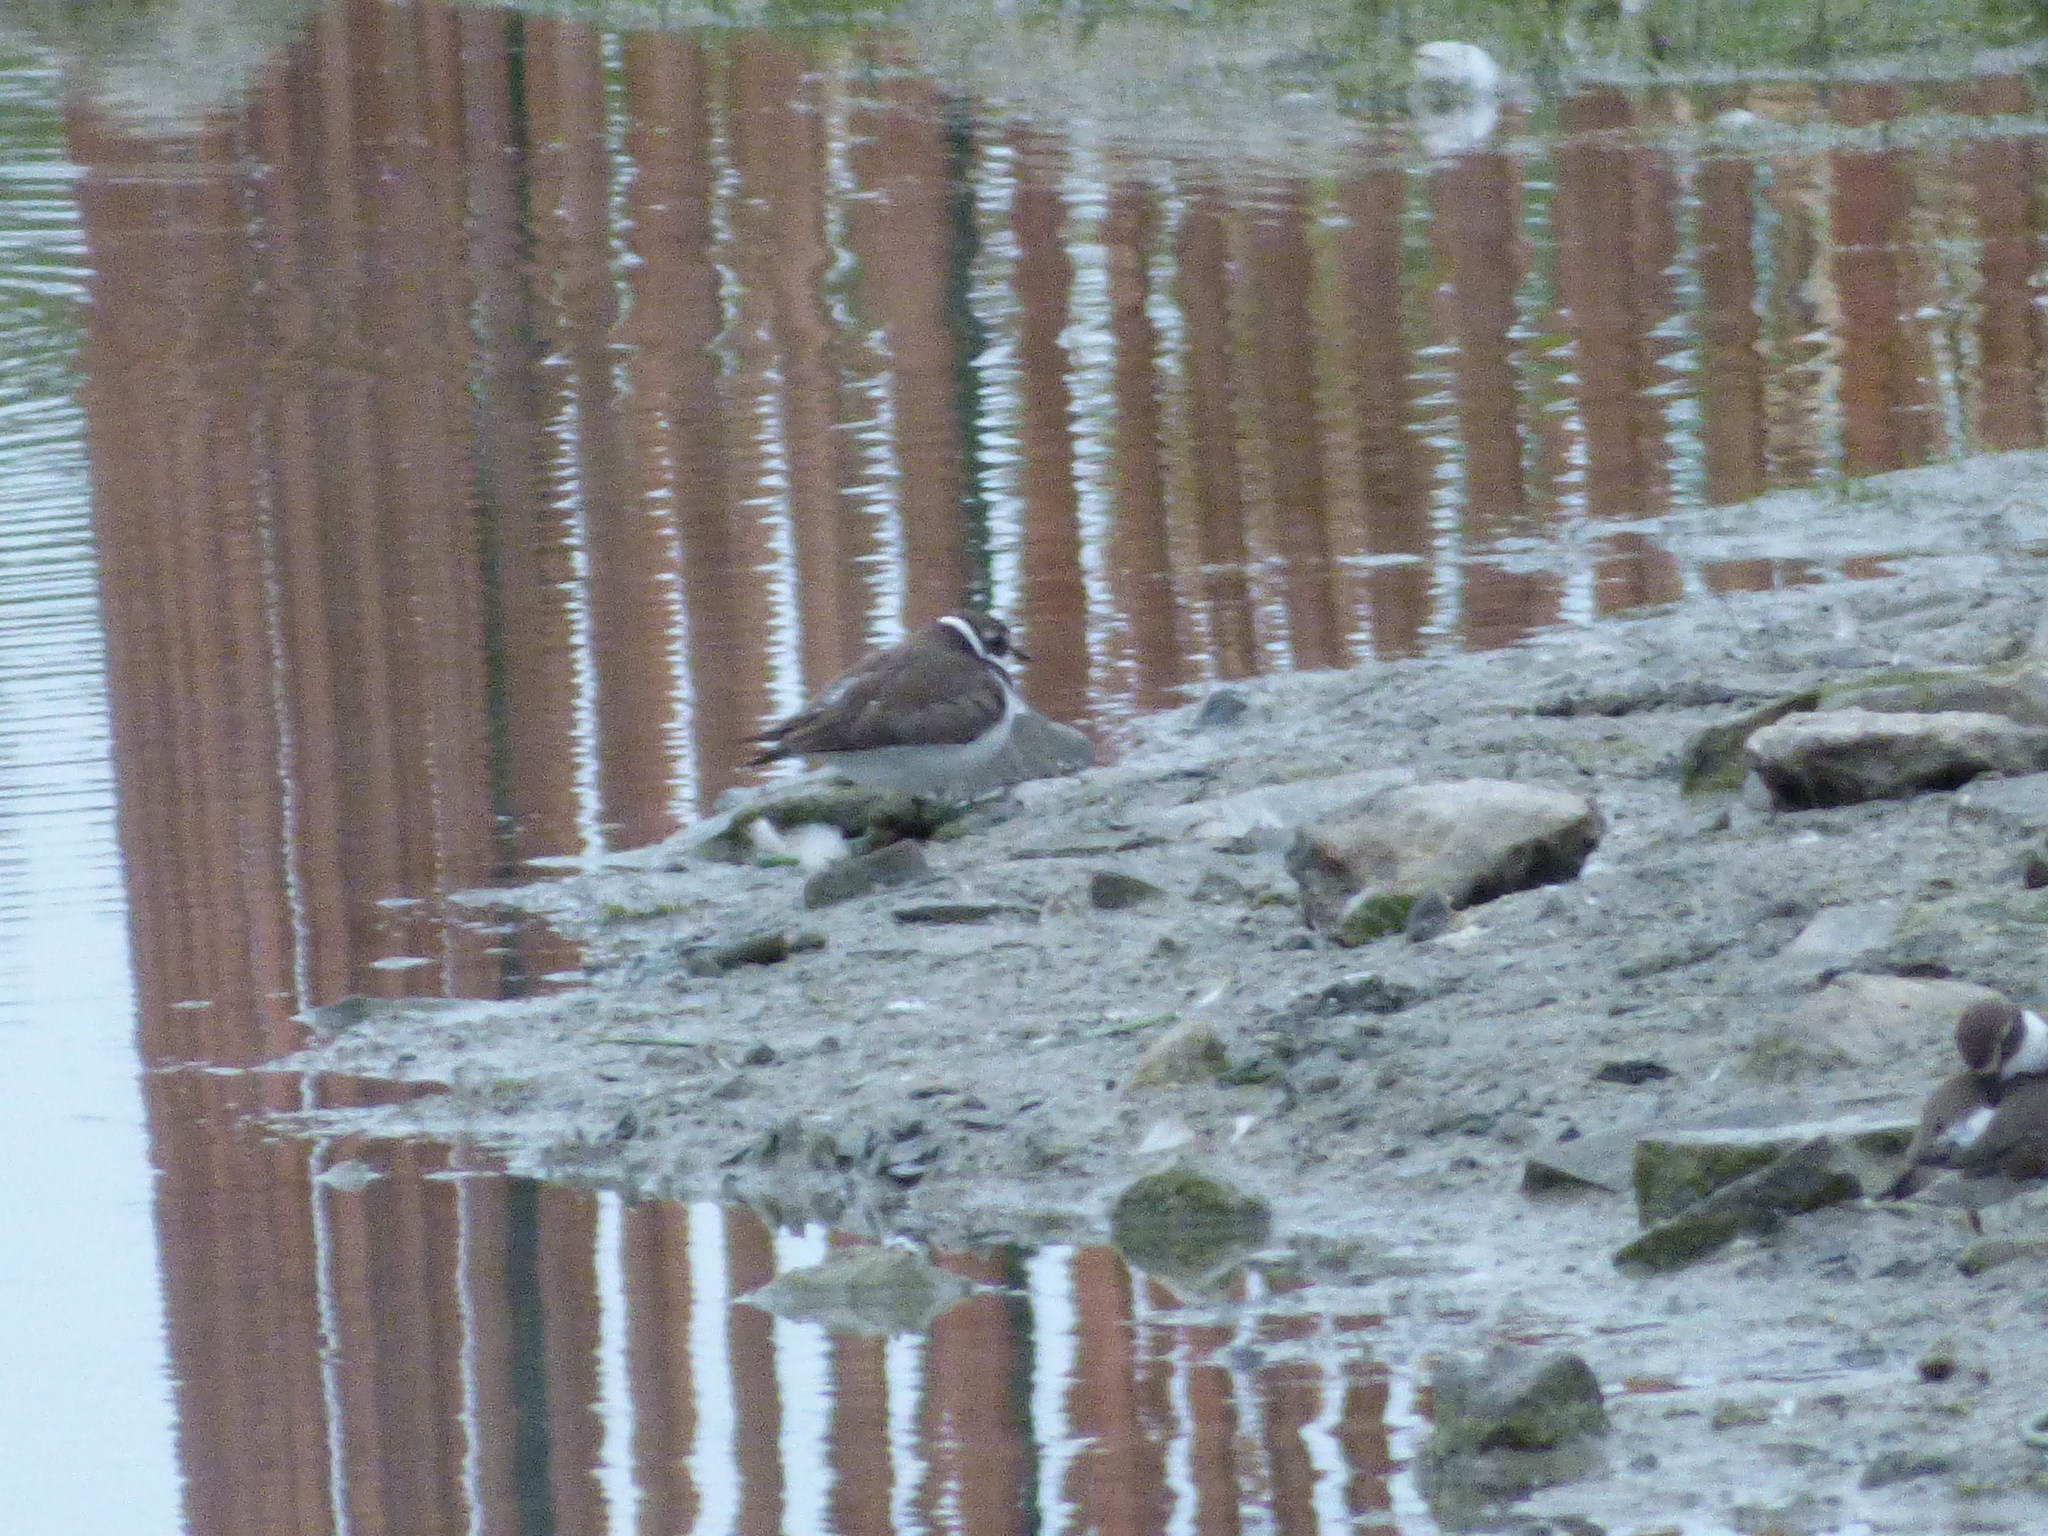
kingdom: Animalia
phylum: Chordata
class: Aves
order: Charadriiformes
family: Charadriidae
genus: Charadrius
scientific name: Charadrius semipalmatus
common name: Semipalmated plover
